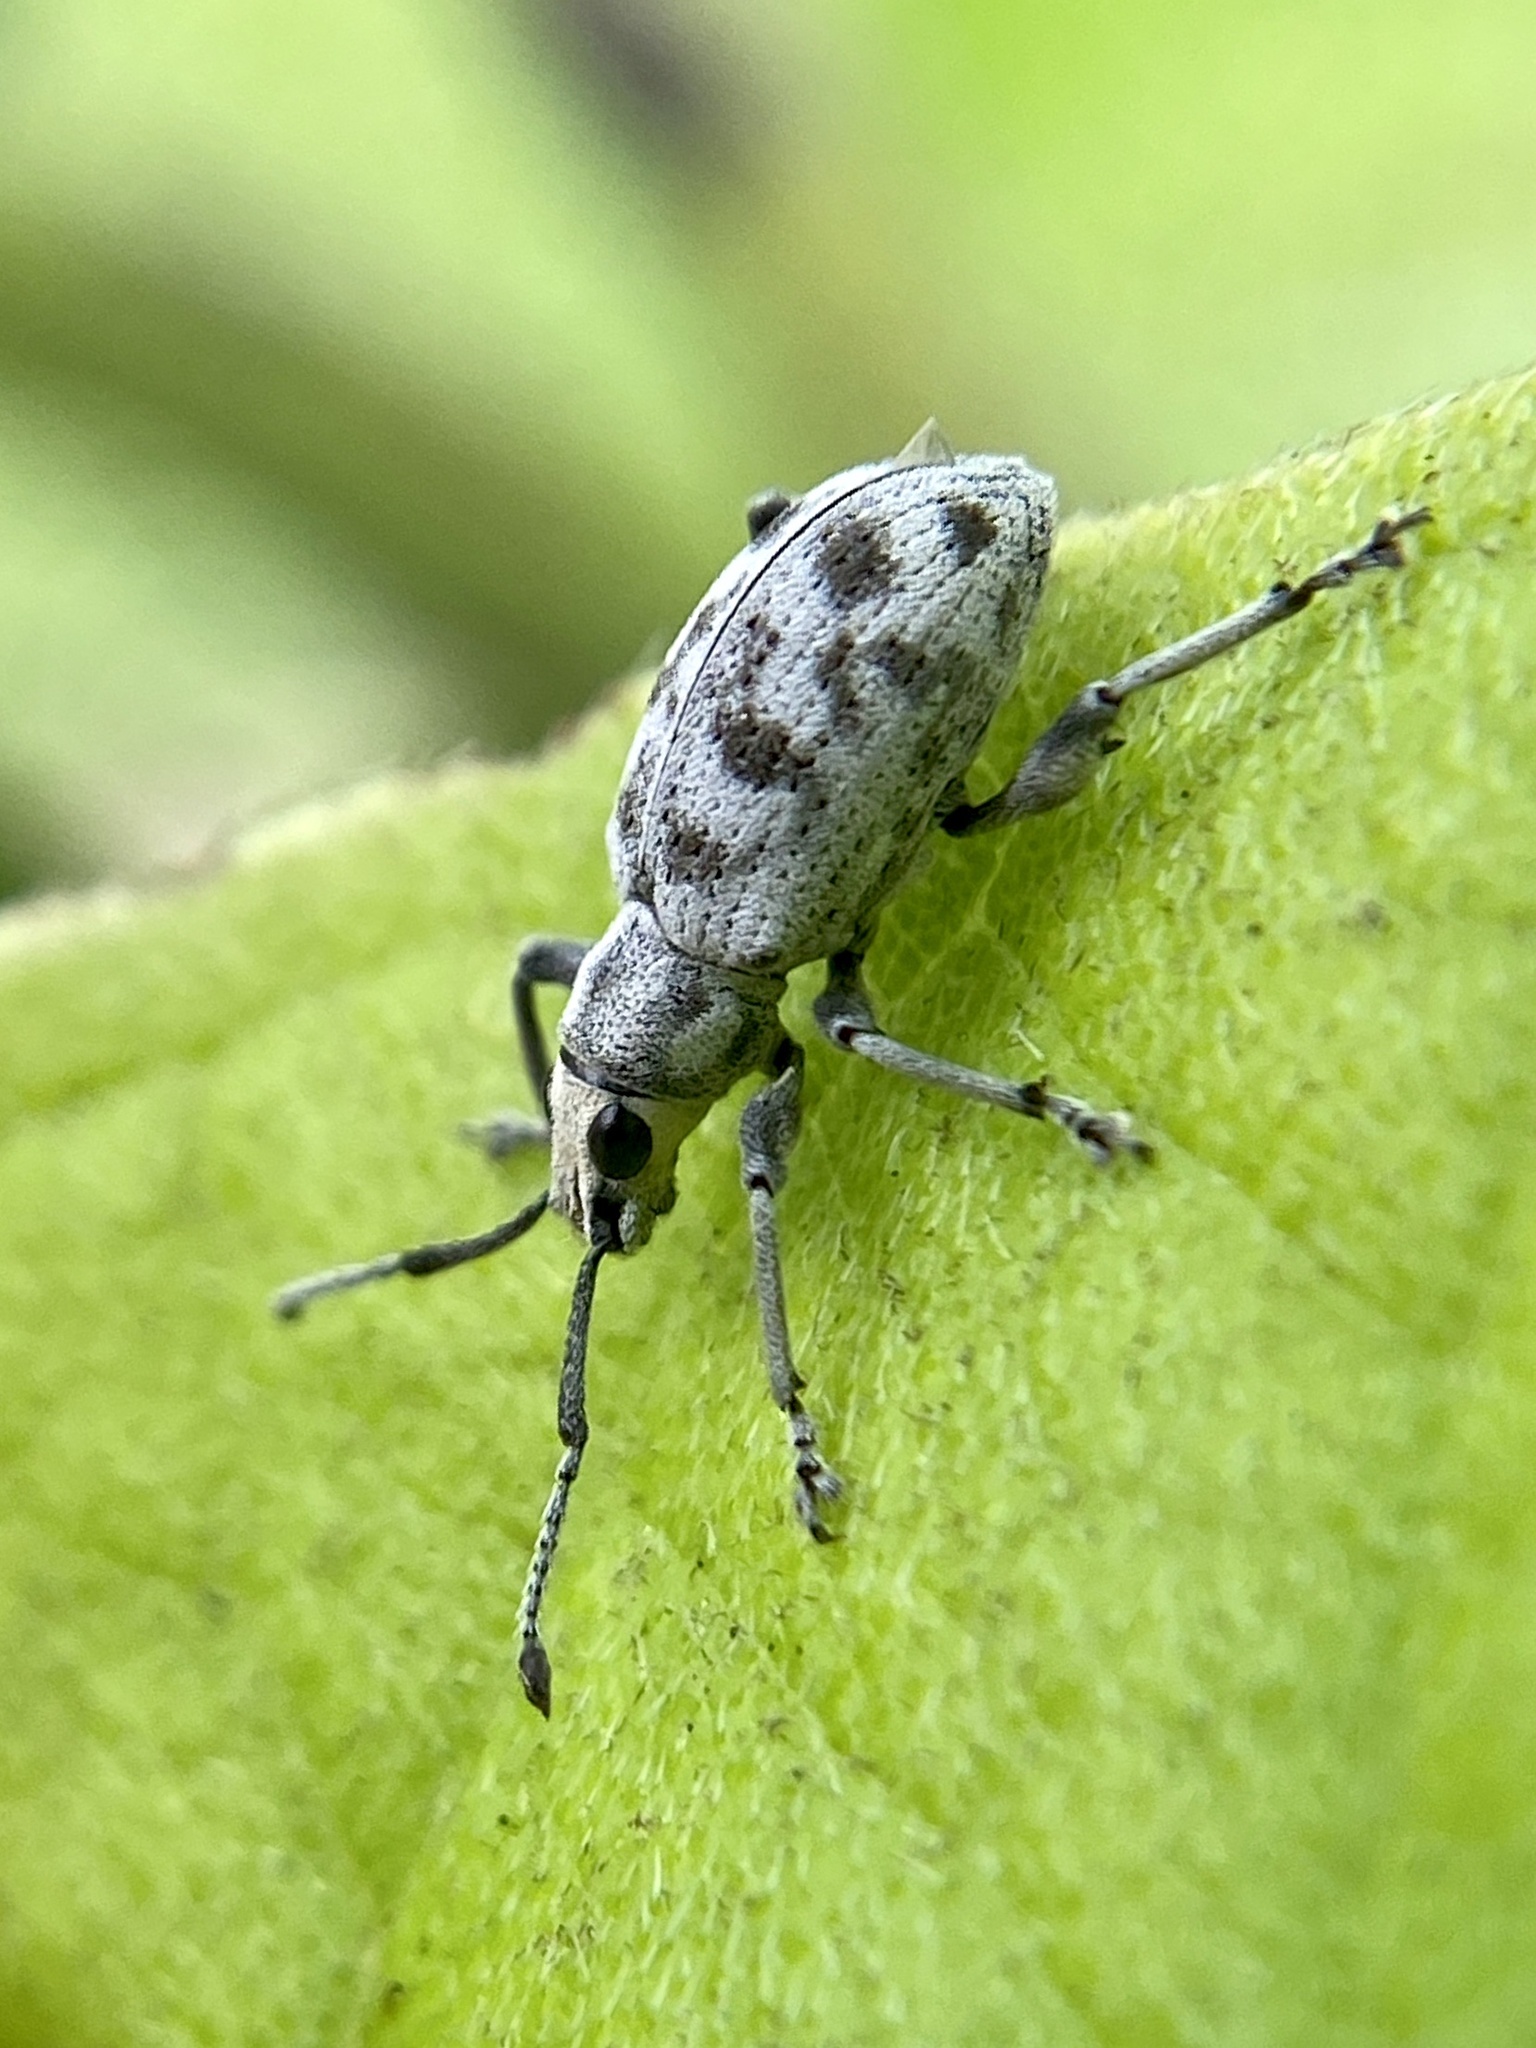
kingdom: Animalia
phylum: Arthropoda
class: Insecta
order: Coleoptera
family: Curculionidae
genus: Myllocerus
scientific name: Myllocerus undecimpustulatus
